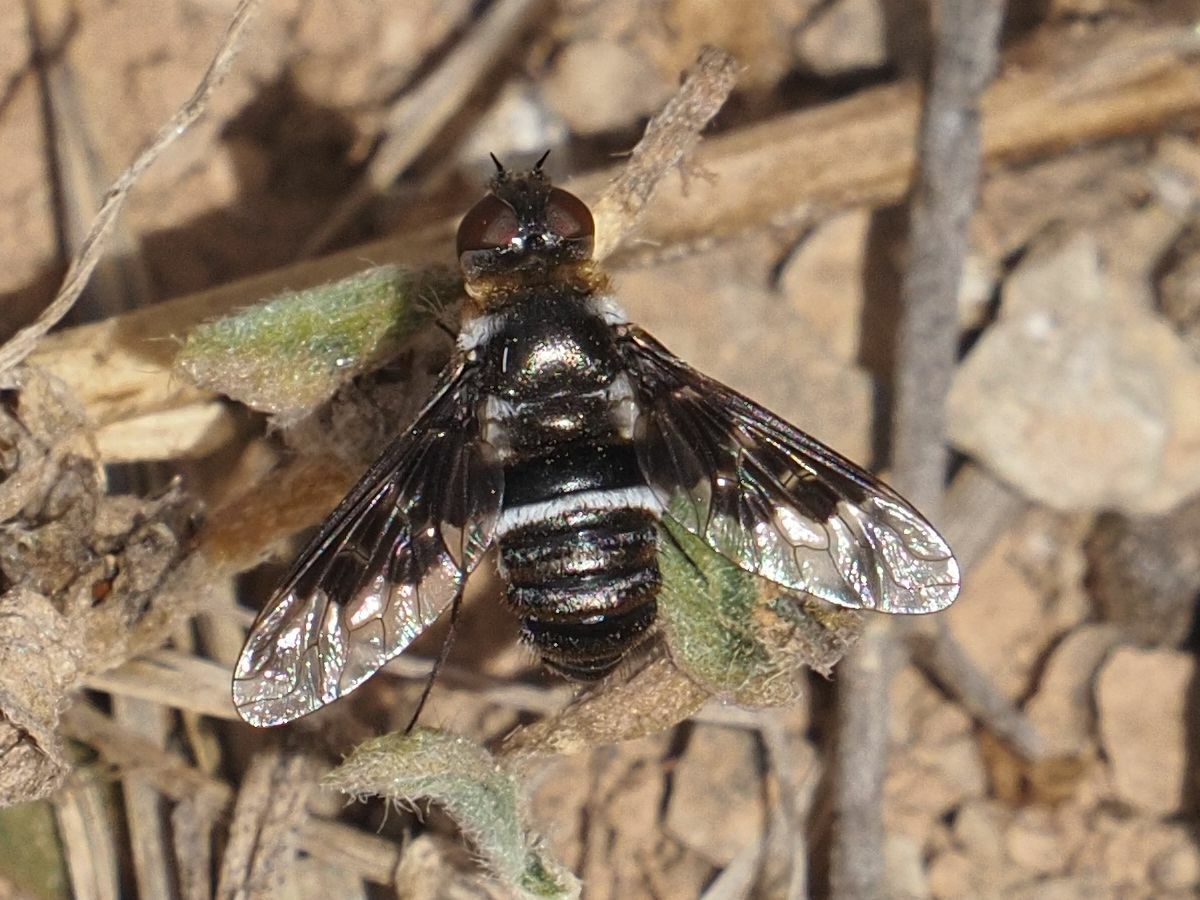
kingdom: Animalia
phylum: Arthropoda
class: Insecta
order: Diptera
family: Bombyliidae
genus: Thyridanthrax
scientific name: Thyridanthrax indigenus
